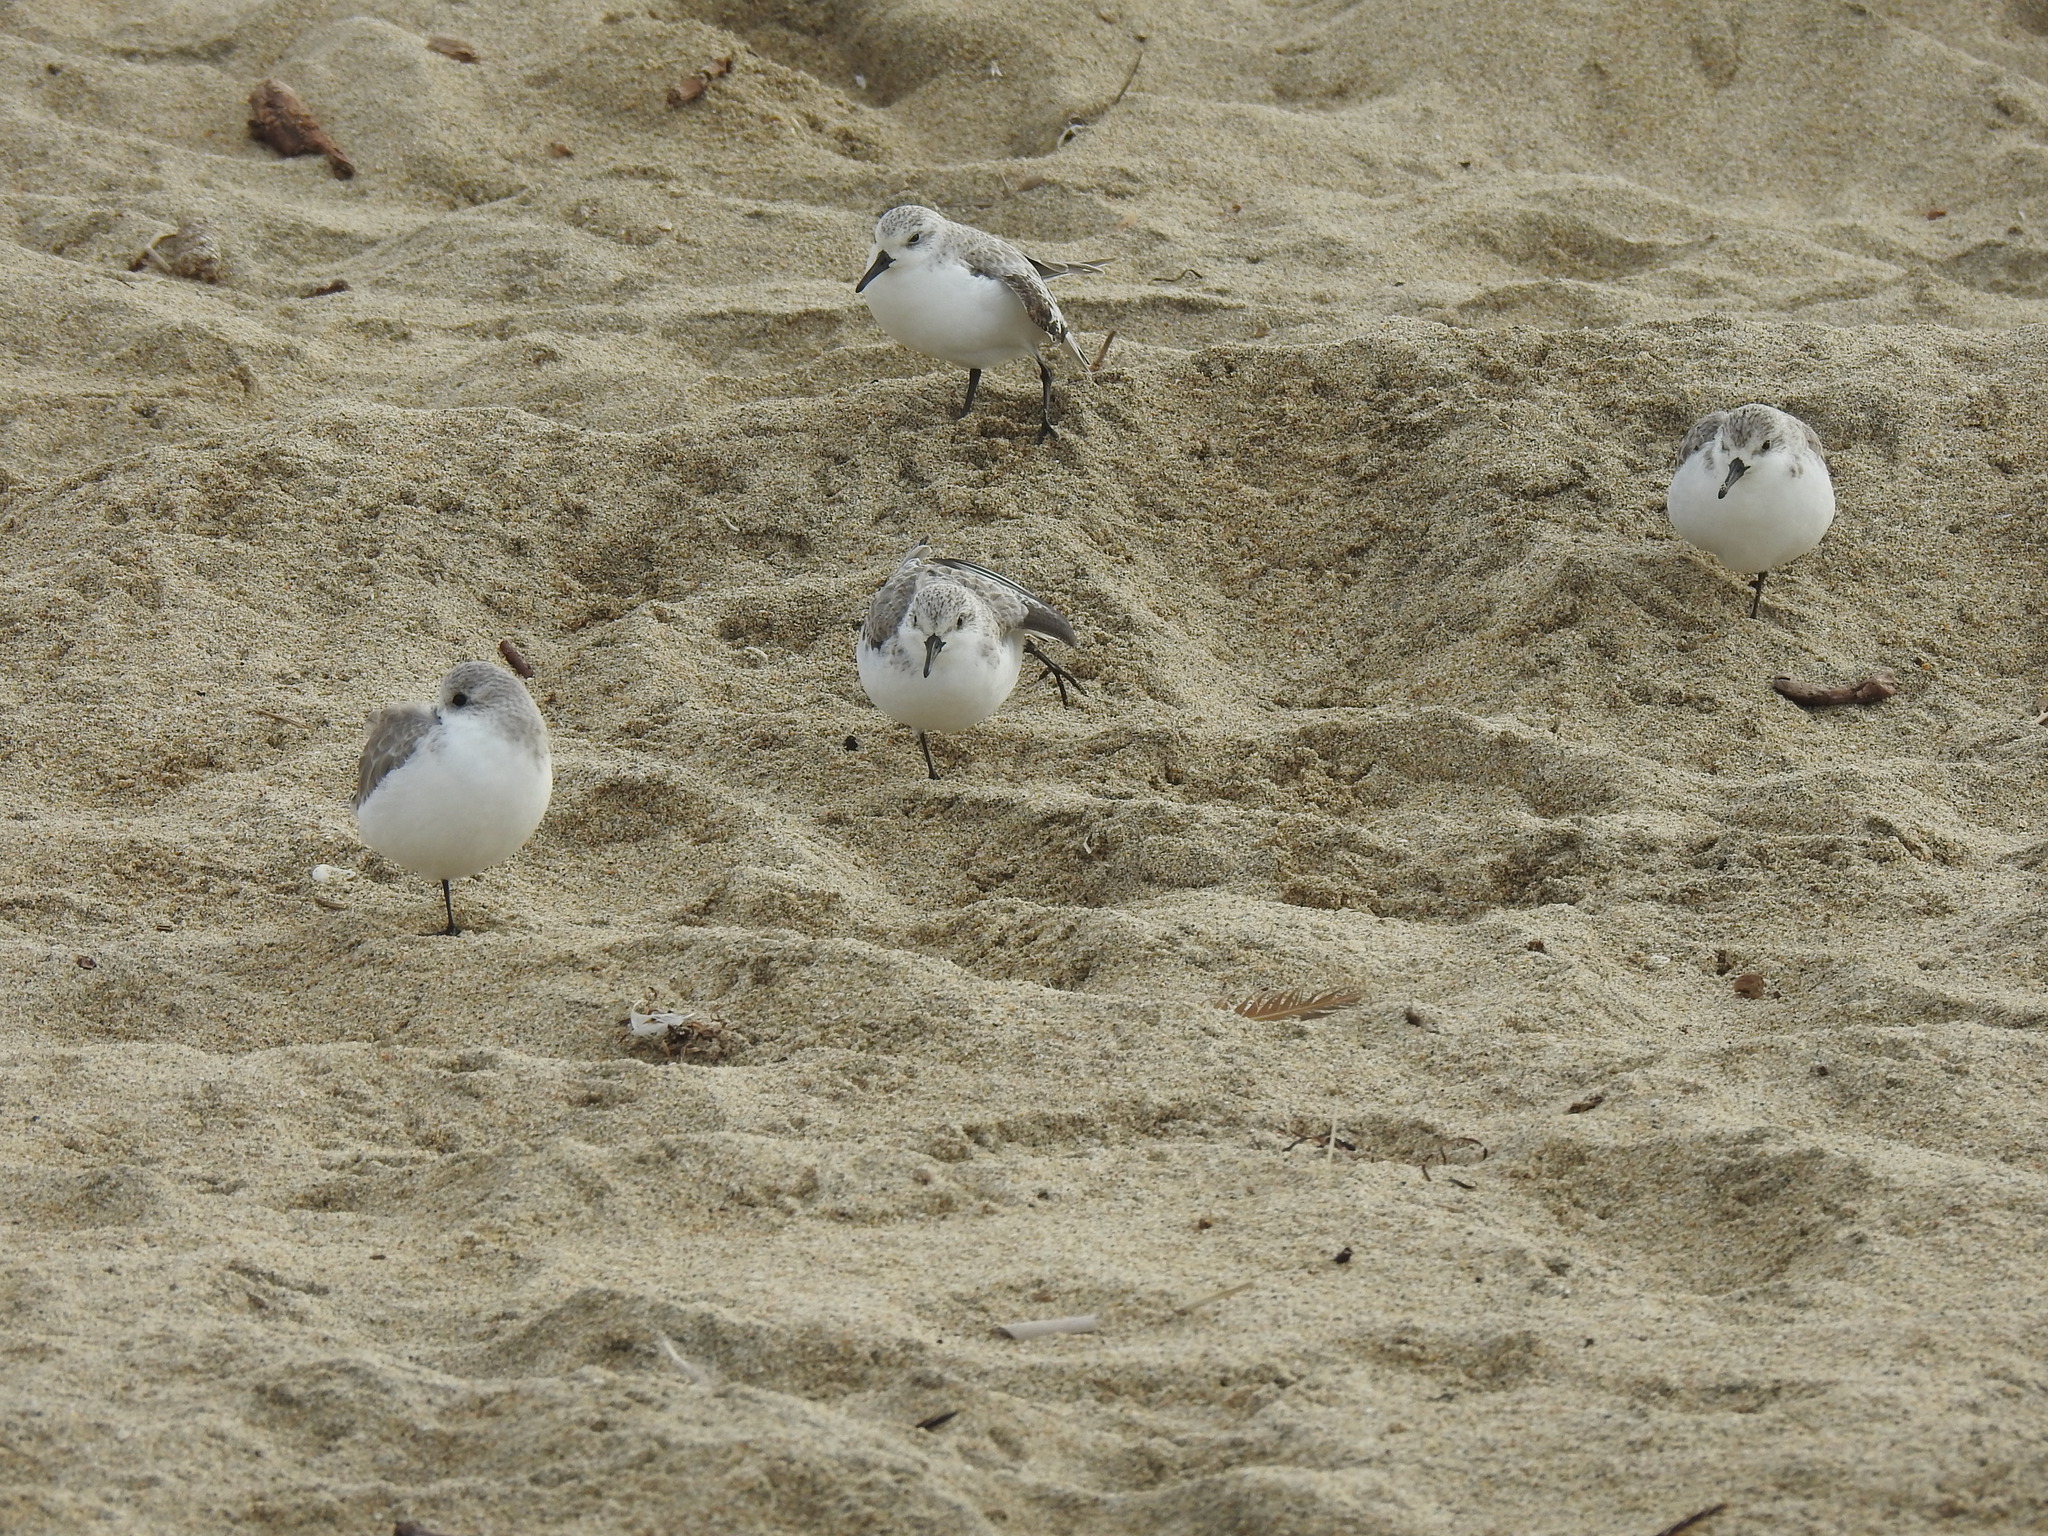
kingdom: Animalia
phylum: Chordata
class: Aves
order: Charadriiformes
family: Scolopacidae
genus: Calidris
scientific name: Calidris alba
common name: Sanderling
